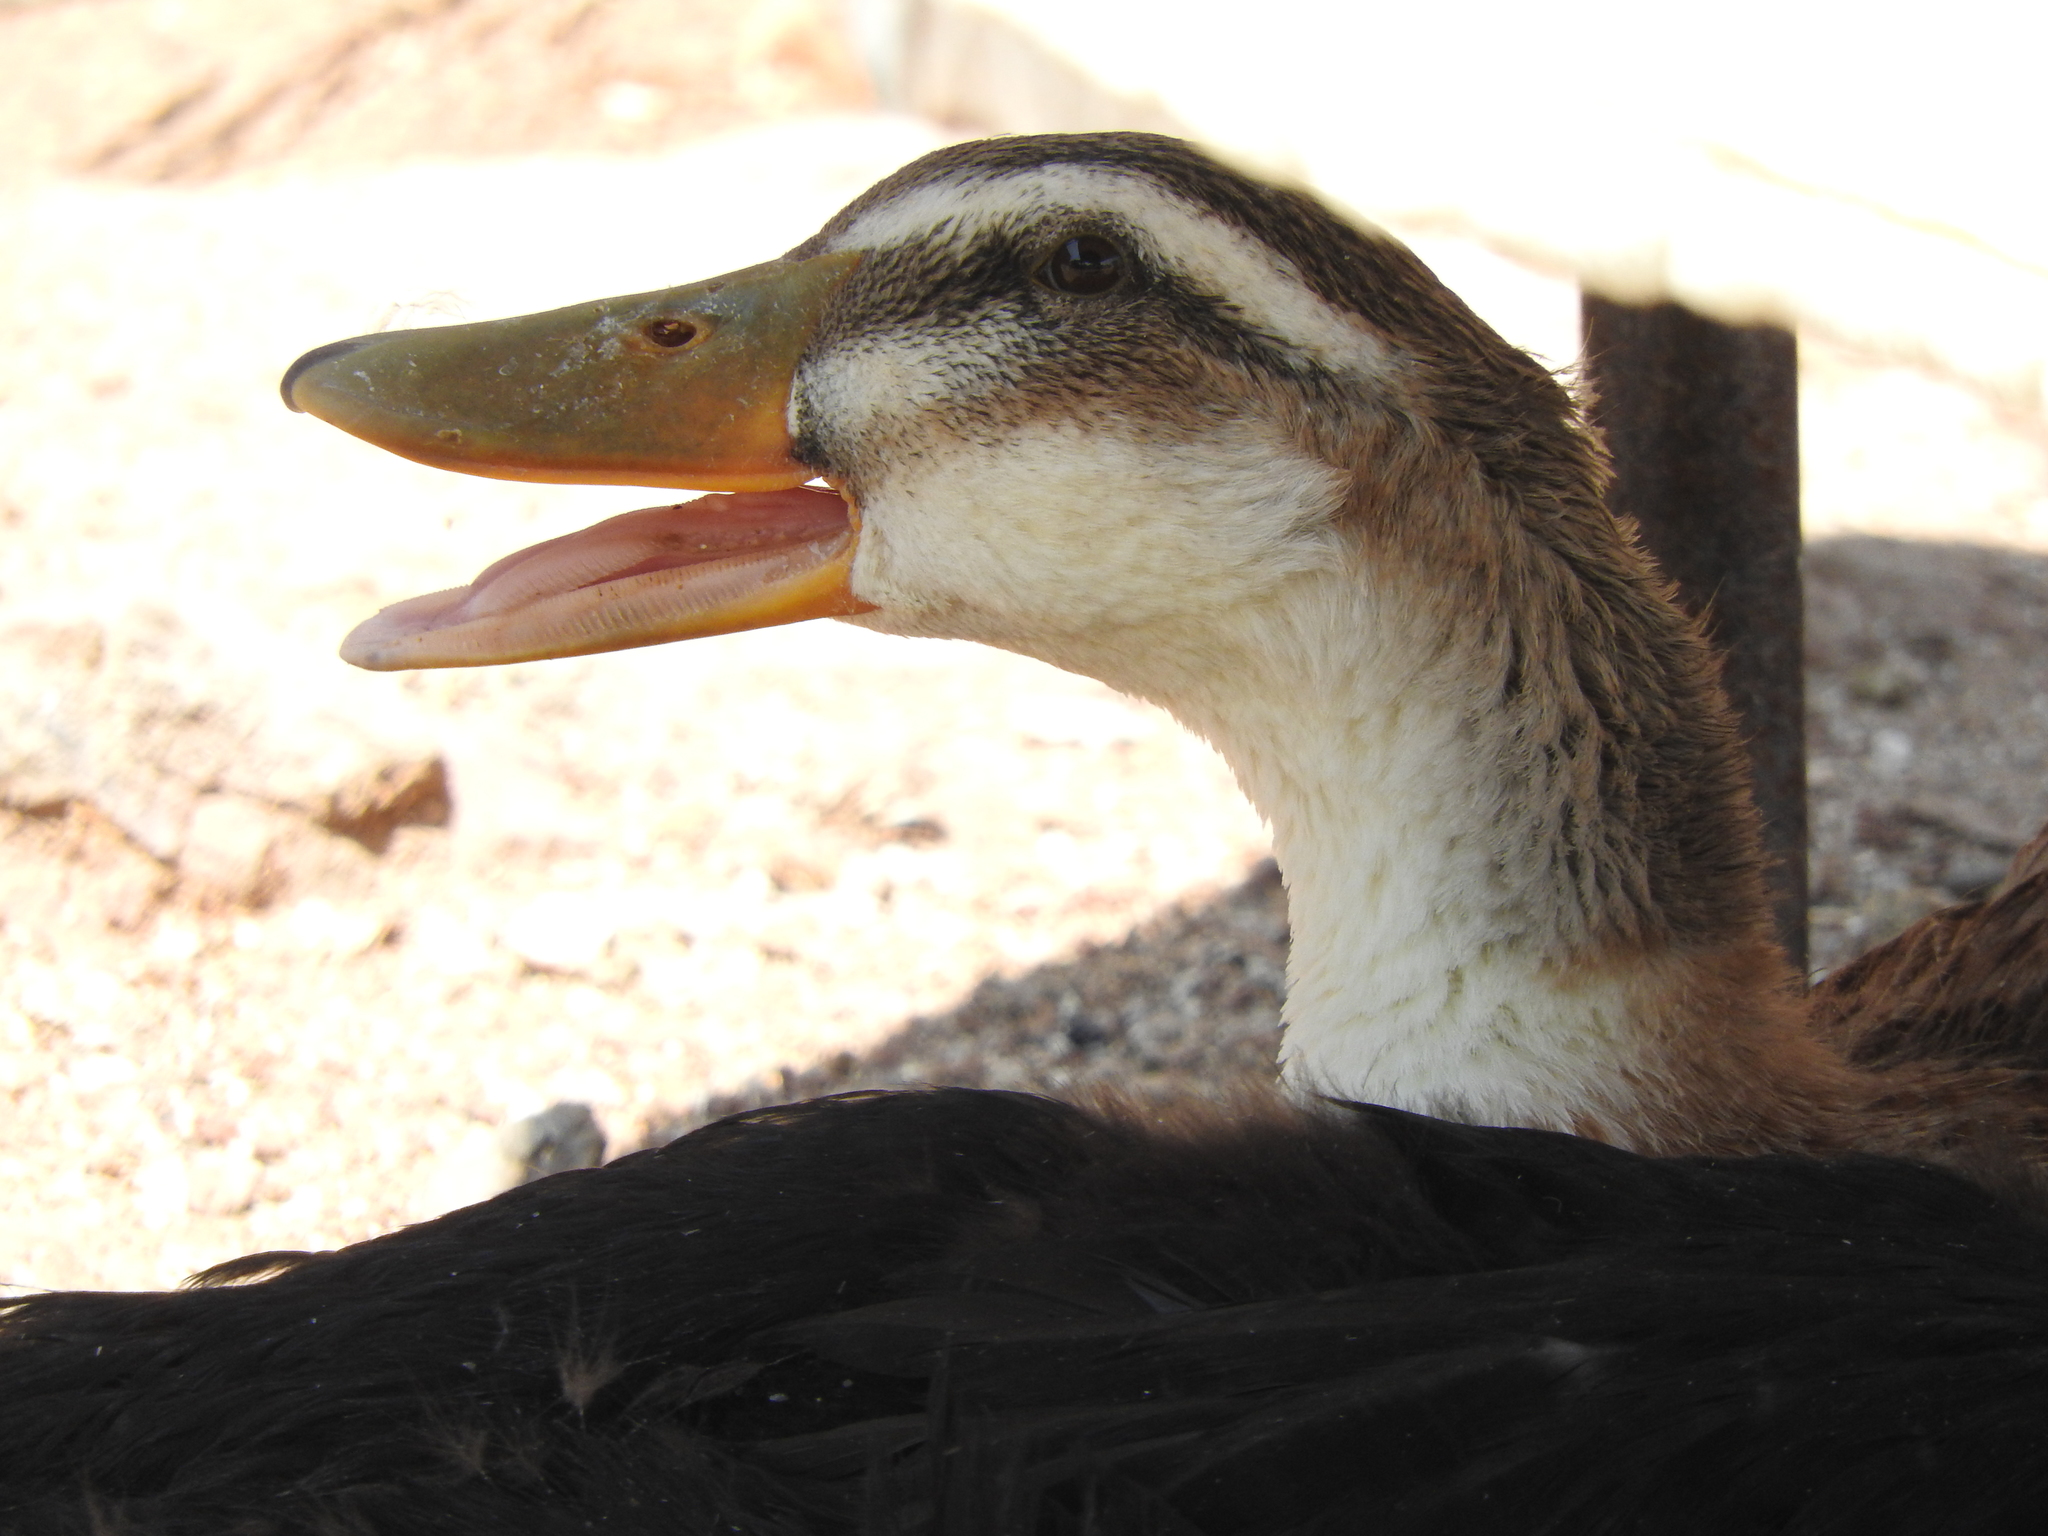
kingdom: Animalia
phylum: Chordata
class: Aves
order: Anseriformes
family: Anatidae
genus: Anas
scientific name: Anas platyrhynchos
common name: Mallard
